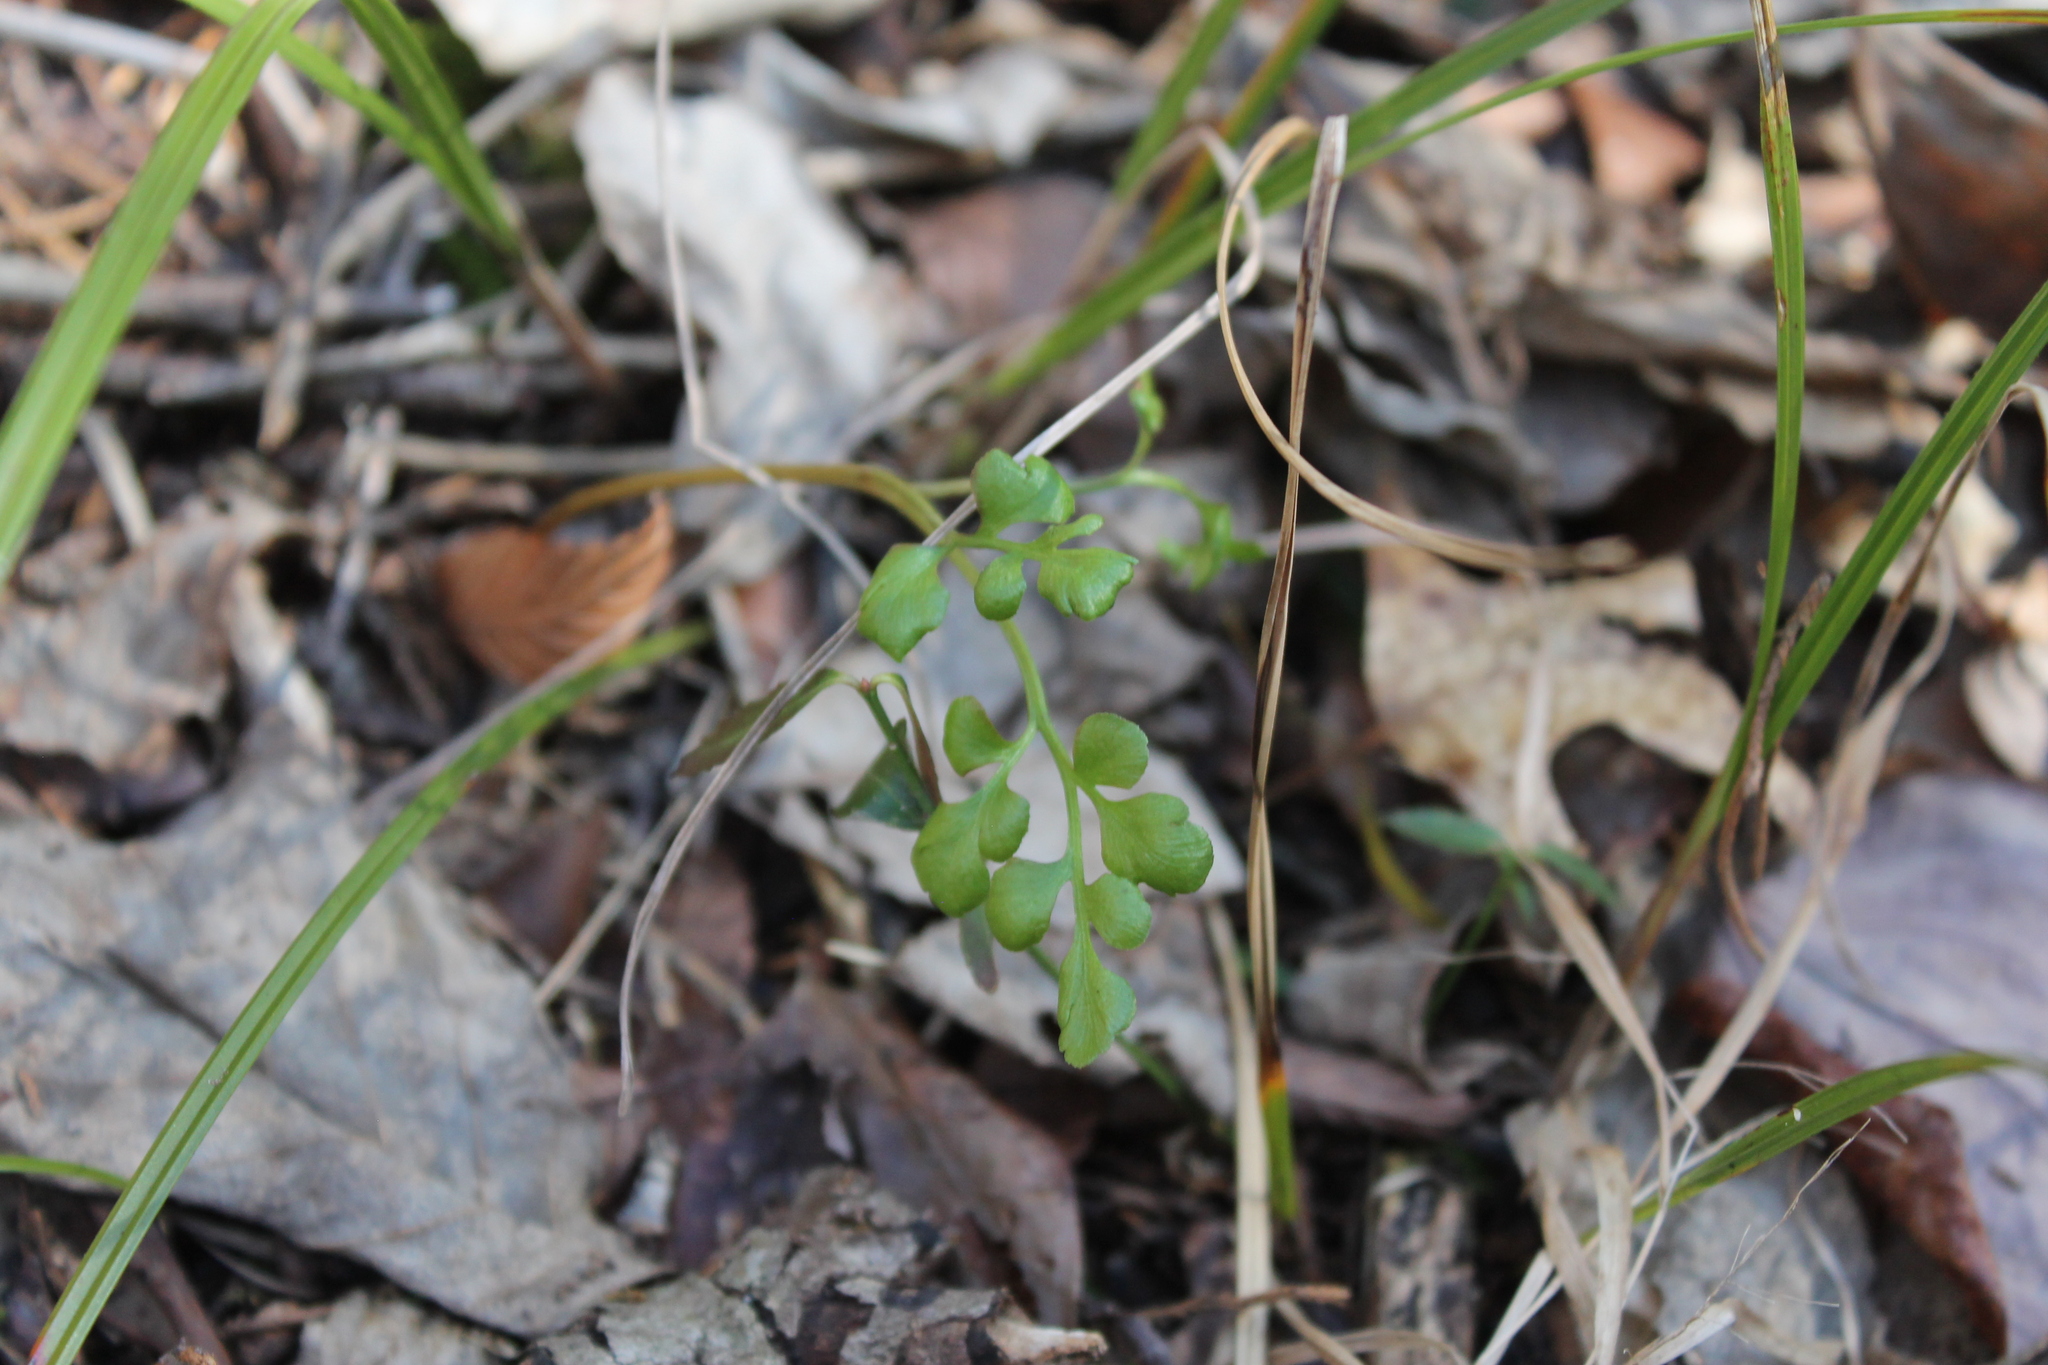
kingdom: Plantae
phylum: Tracheophyta
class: Polypodiopsida
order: Ophioglossales
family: Ophioglossaceae
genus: Sceptridium
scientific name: Sceptridium jenmanii
